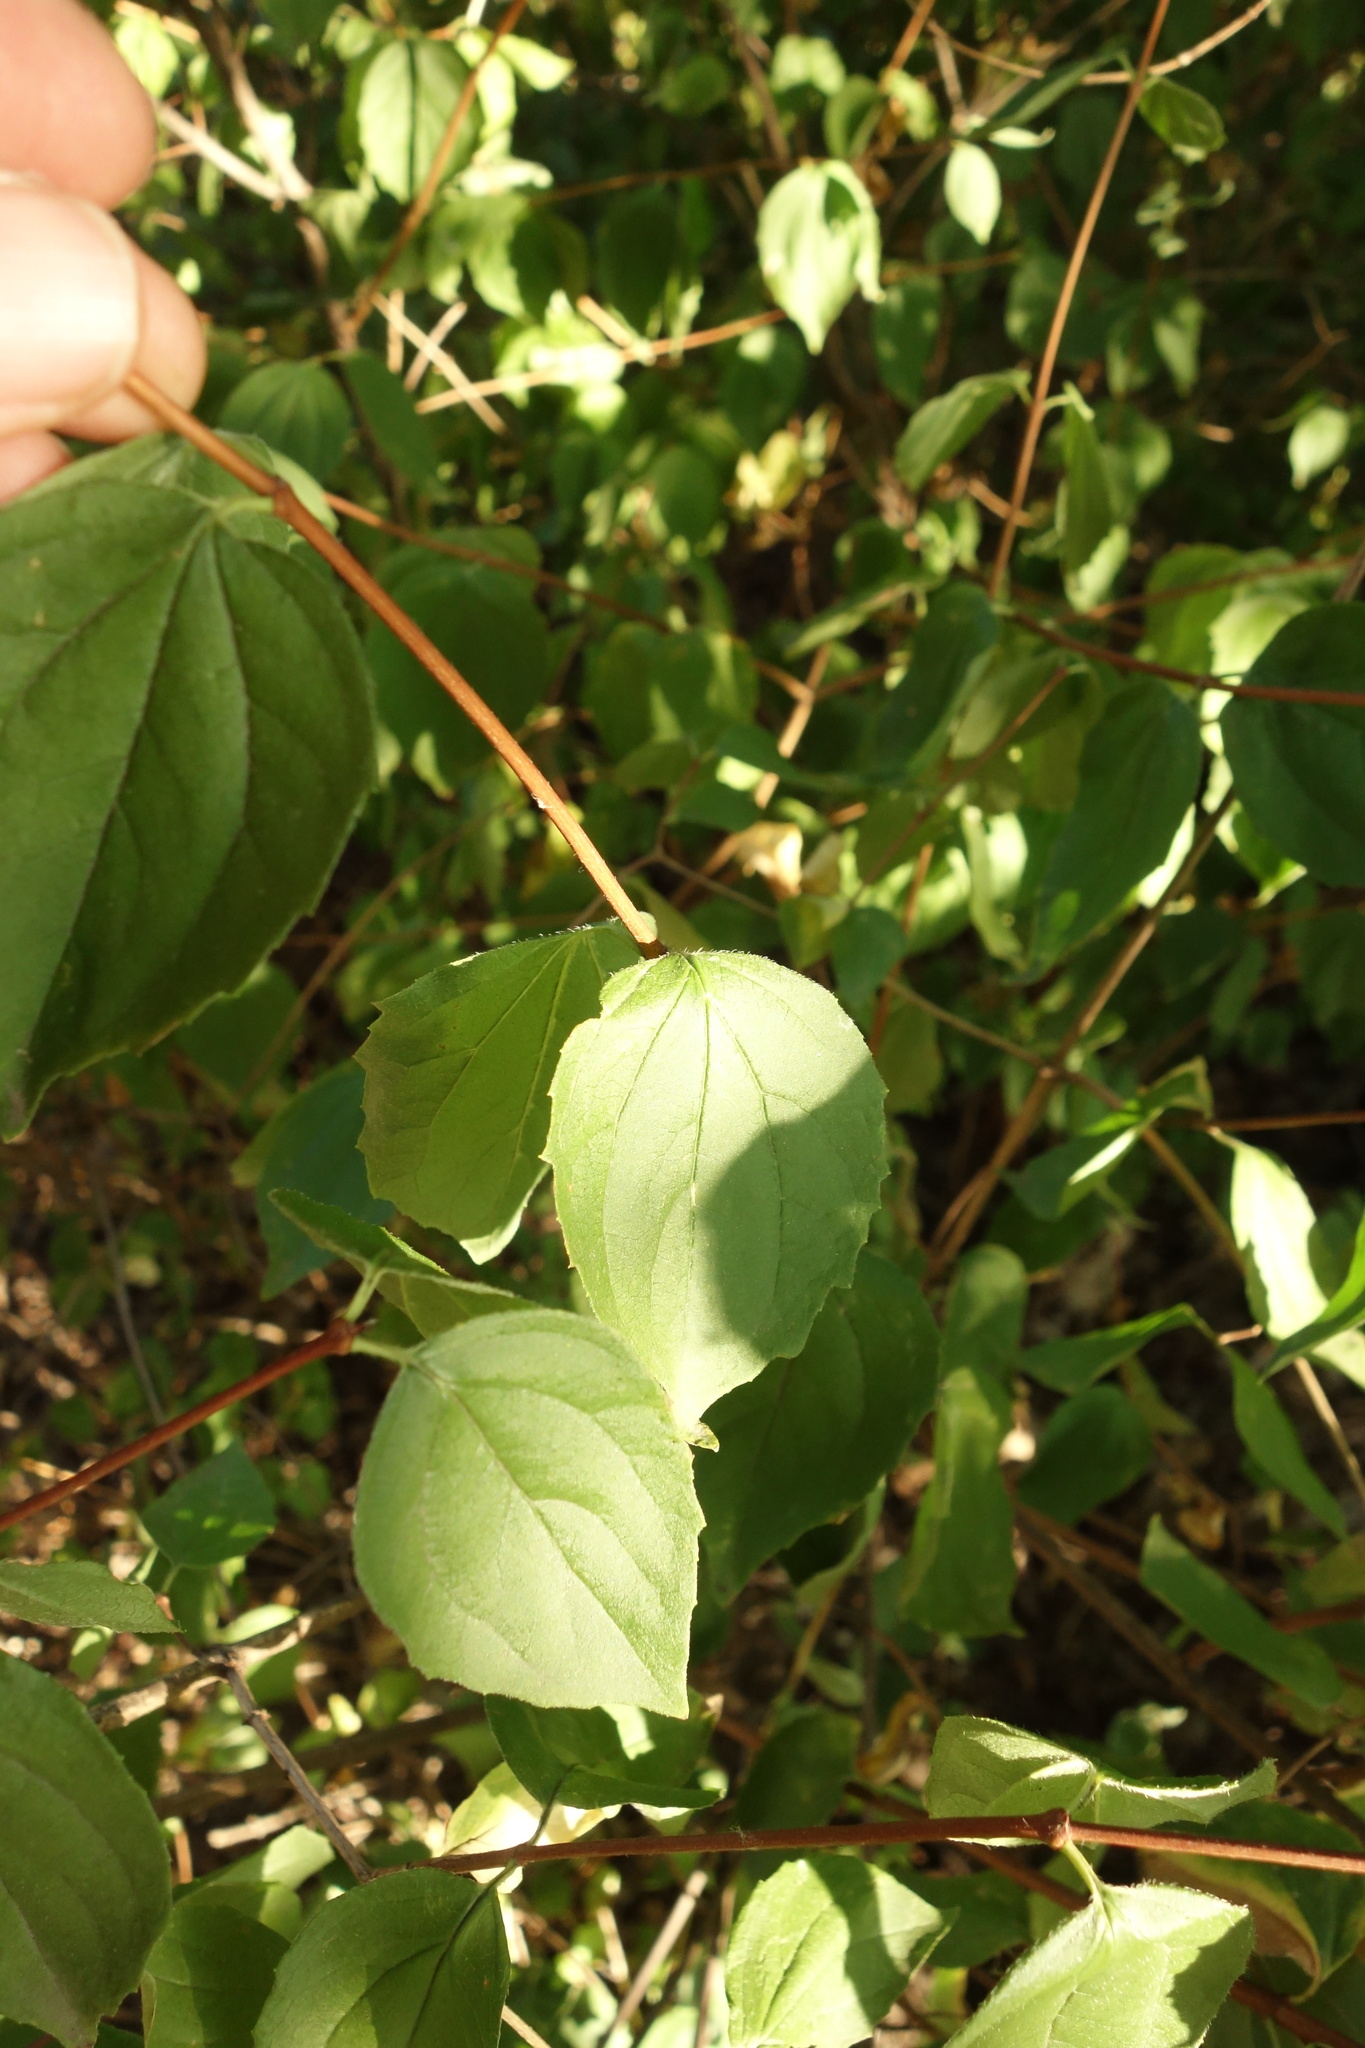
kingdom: Plantae
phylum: Tracheophyta
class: Magnoliopsida
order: Cornales
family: Hydrangeaceae
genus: Philadelphus
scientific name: Philadelphus coronarius
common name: Mock orange
